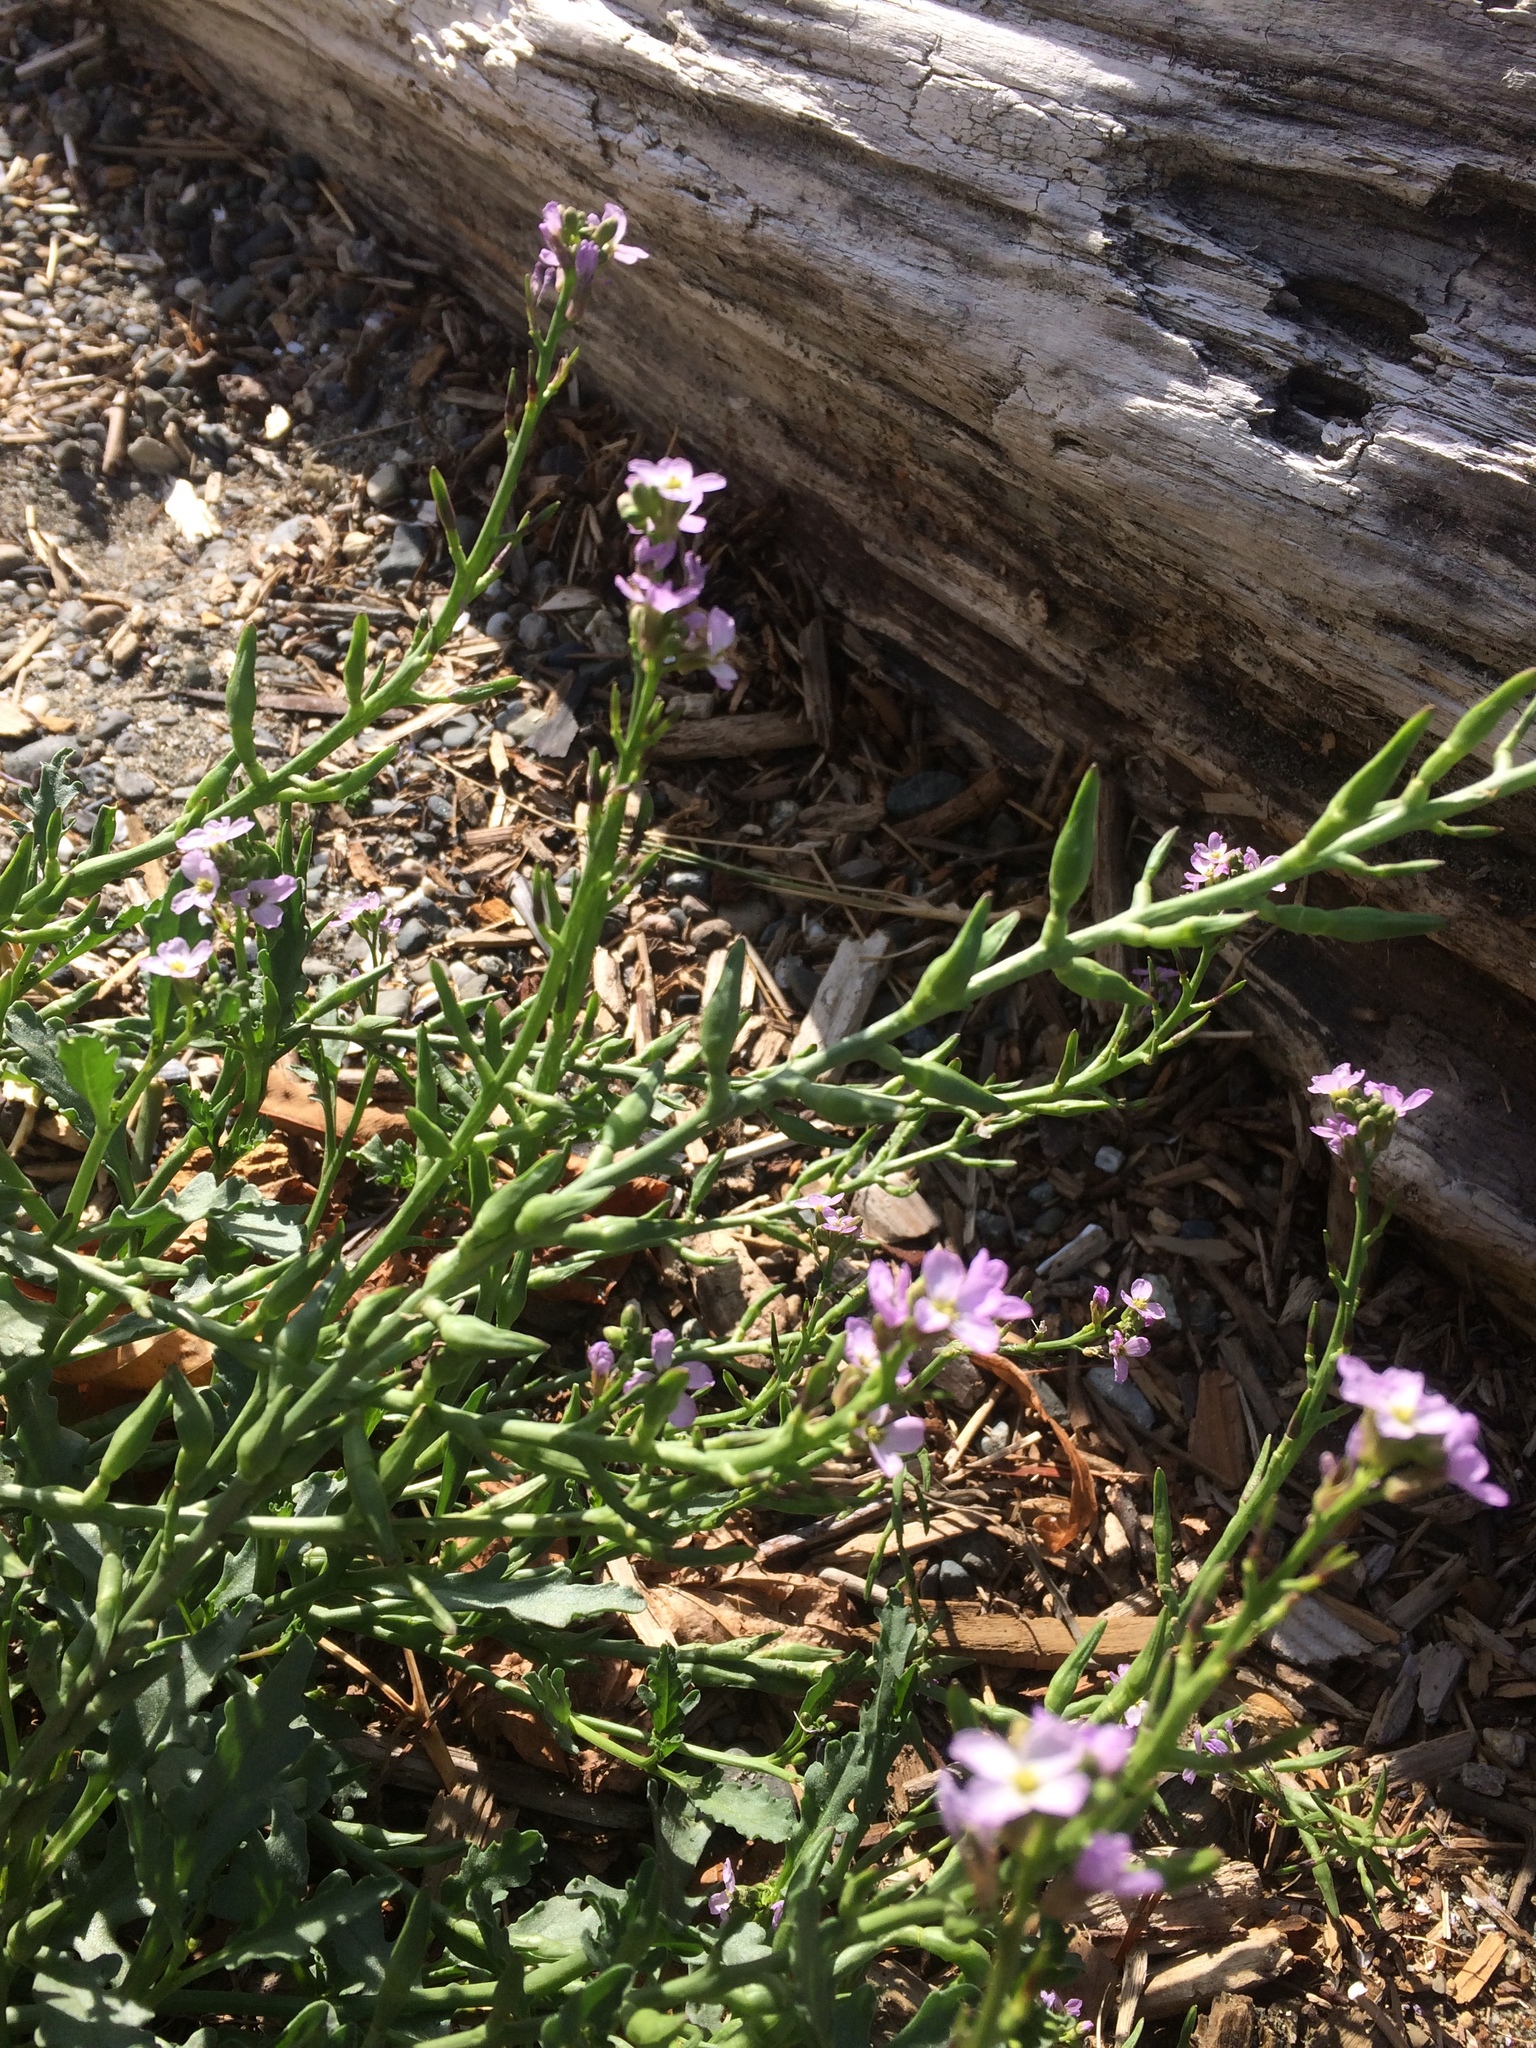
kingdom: Plantae
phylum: Tracheophyta
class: Magnoliopsida
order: Brassicales
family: Brassicaceae
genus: Cakile
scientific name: Cakile maritima
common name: Sea rocket
